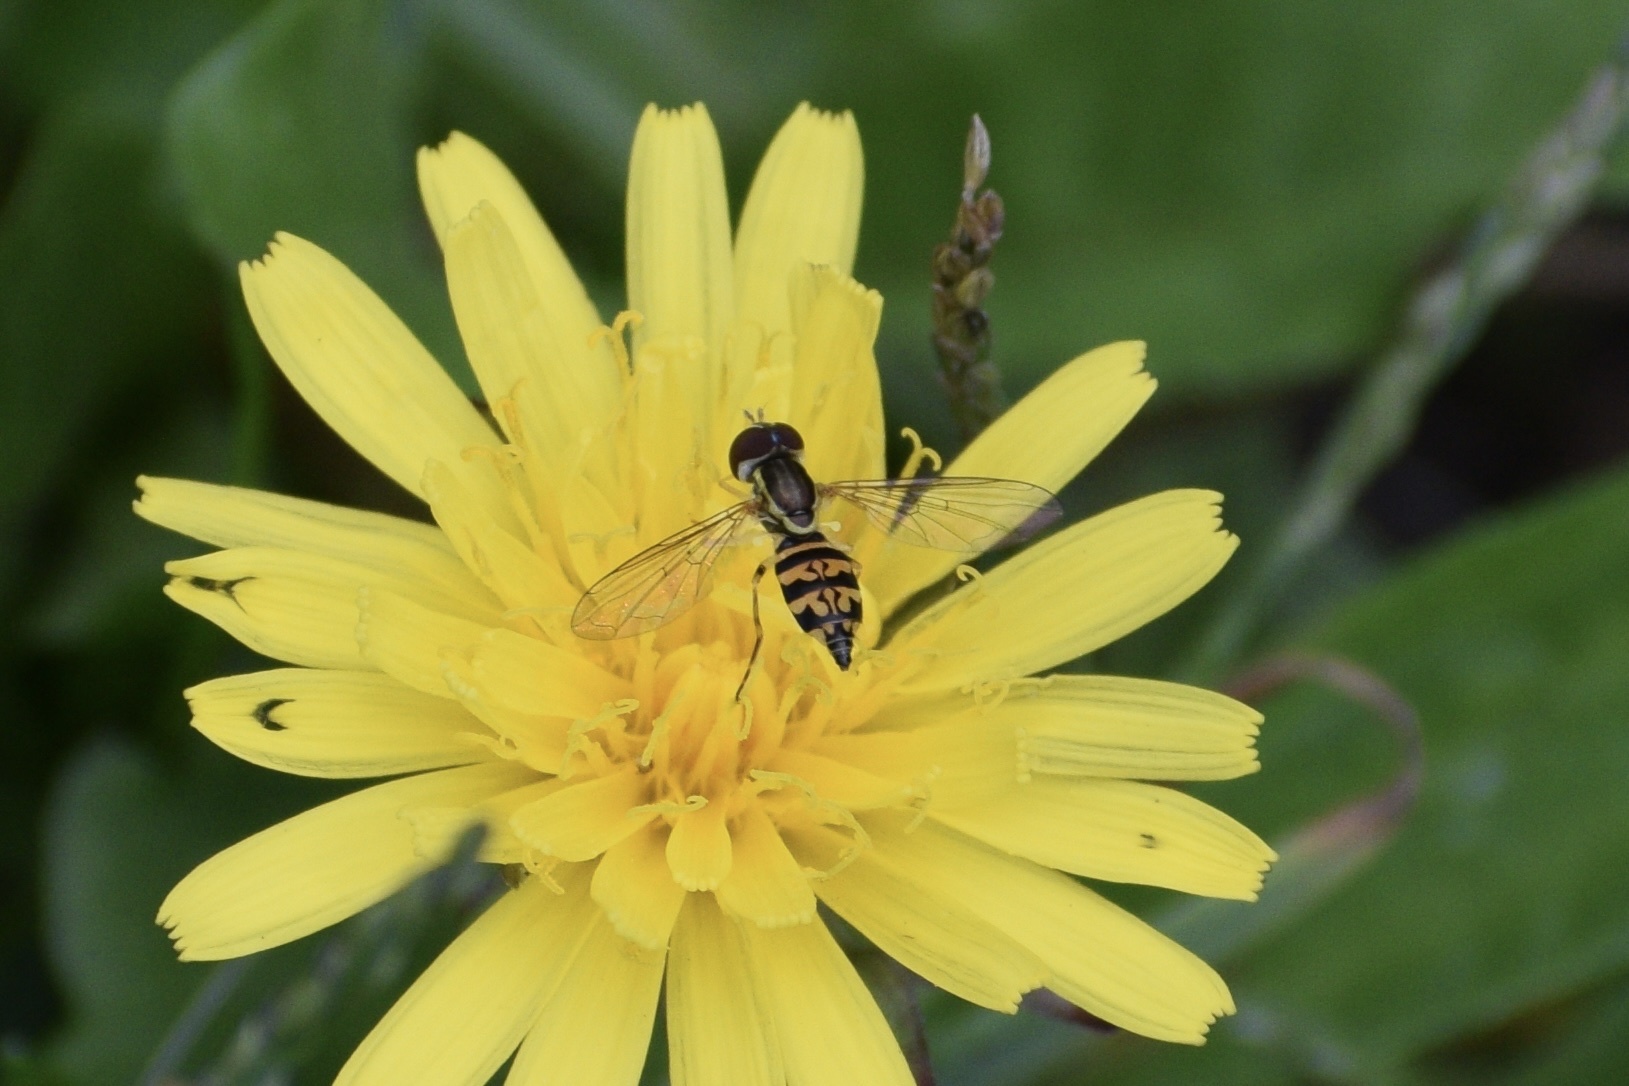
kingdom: Animalia
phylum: Arthropoda
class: Insecta
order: Diptera
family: Syrphidae
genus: Toxomerus
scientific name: Toxomerus geminatus
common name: Eastern calligrapher
